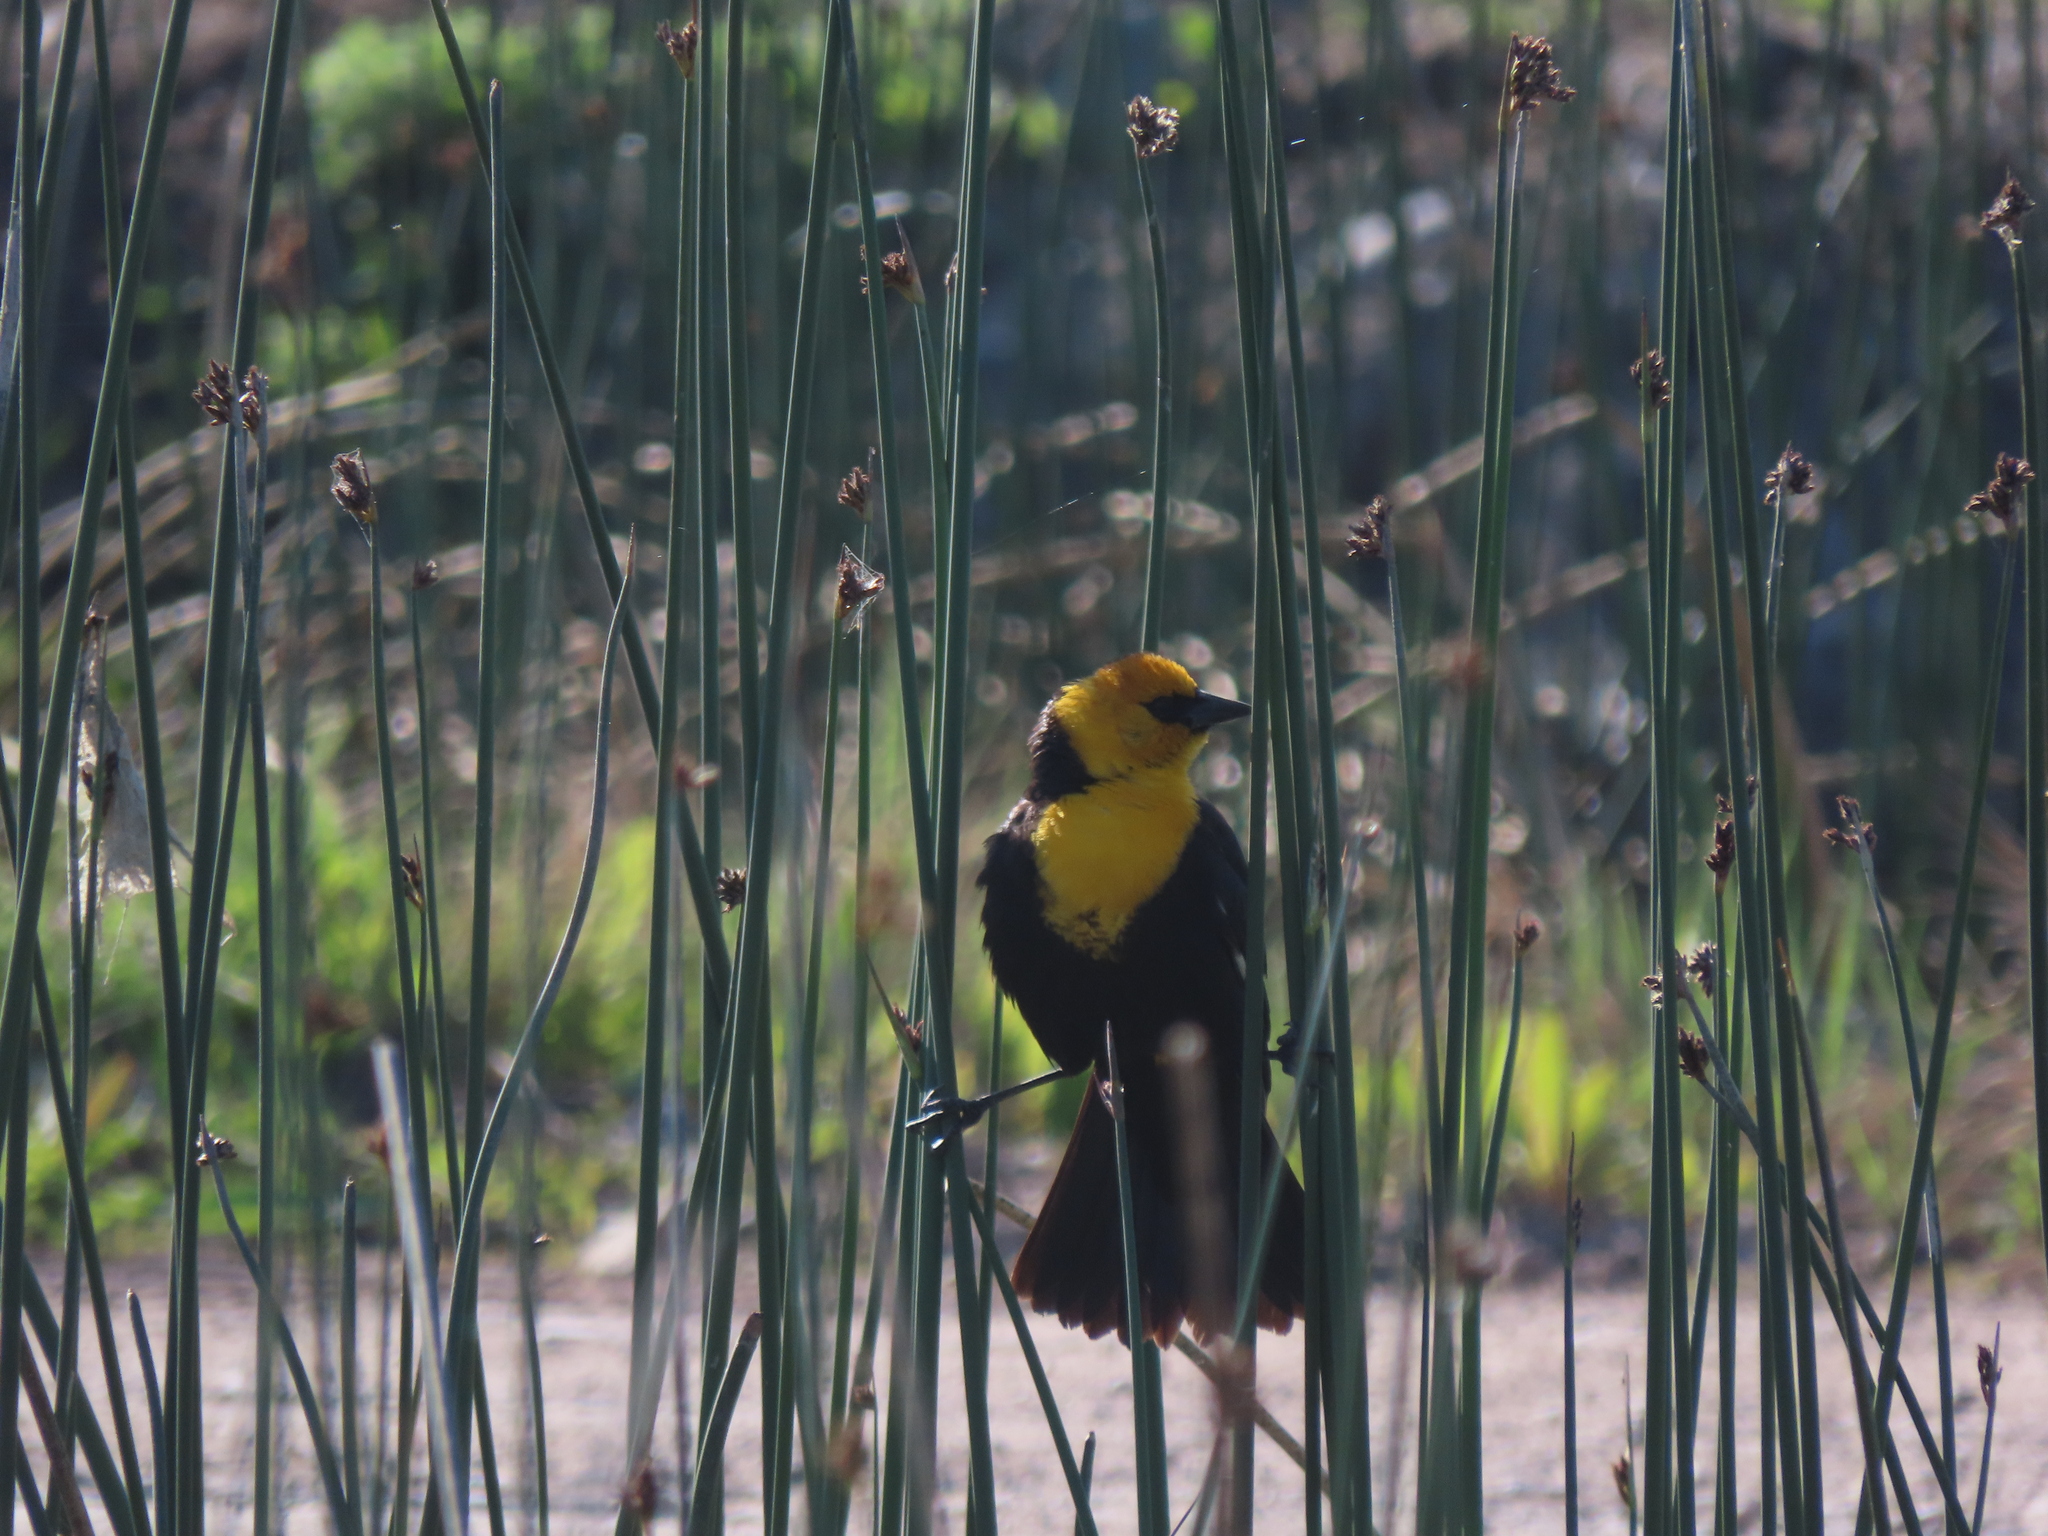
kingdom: Animalia
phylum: Chordata
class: Aves
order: Passeriformes
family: Icteridae
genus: Xanthocephalus
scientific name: Xanthocephalus xanthocephalus
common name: Yellow-headed blackbird
